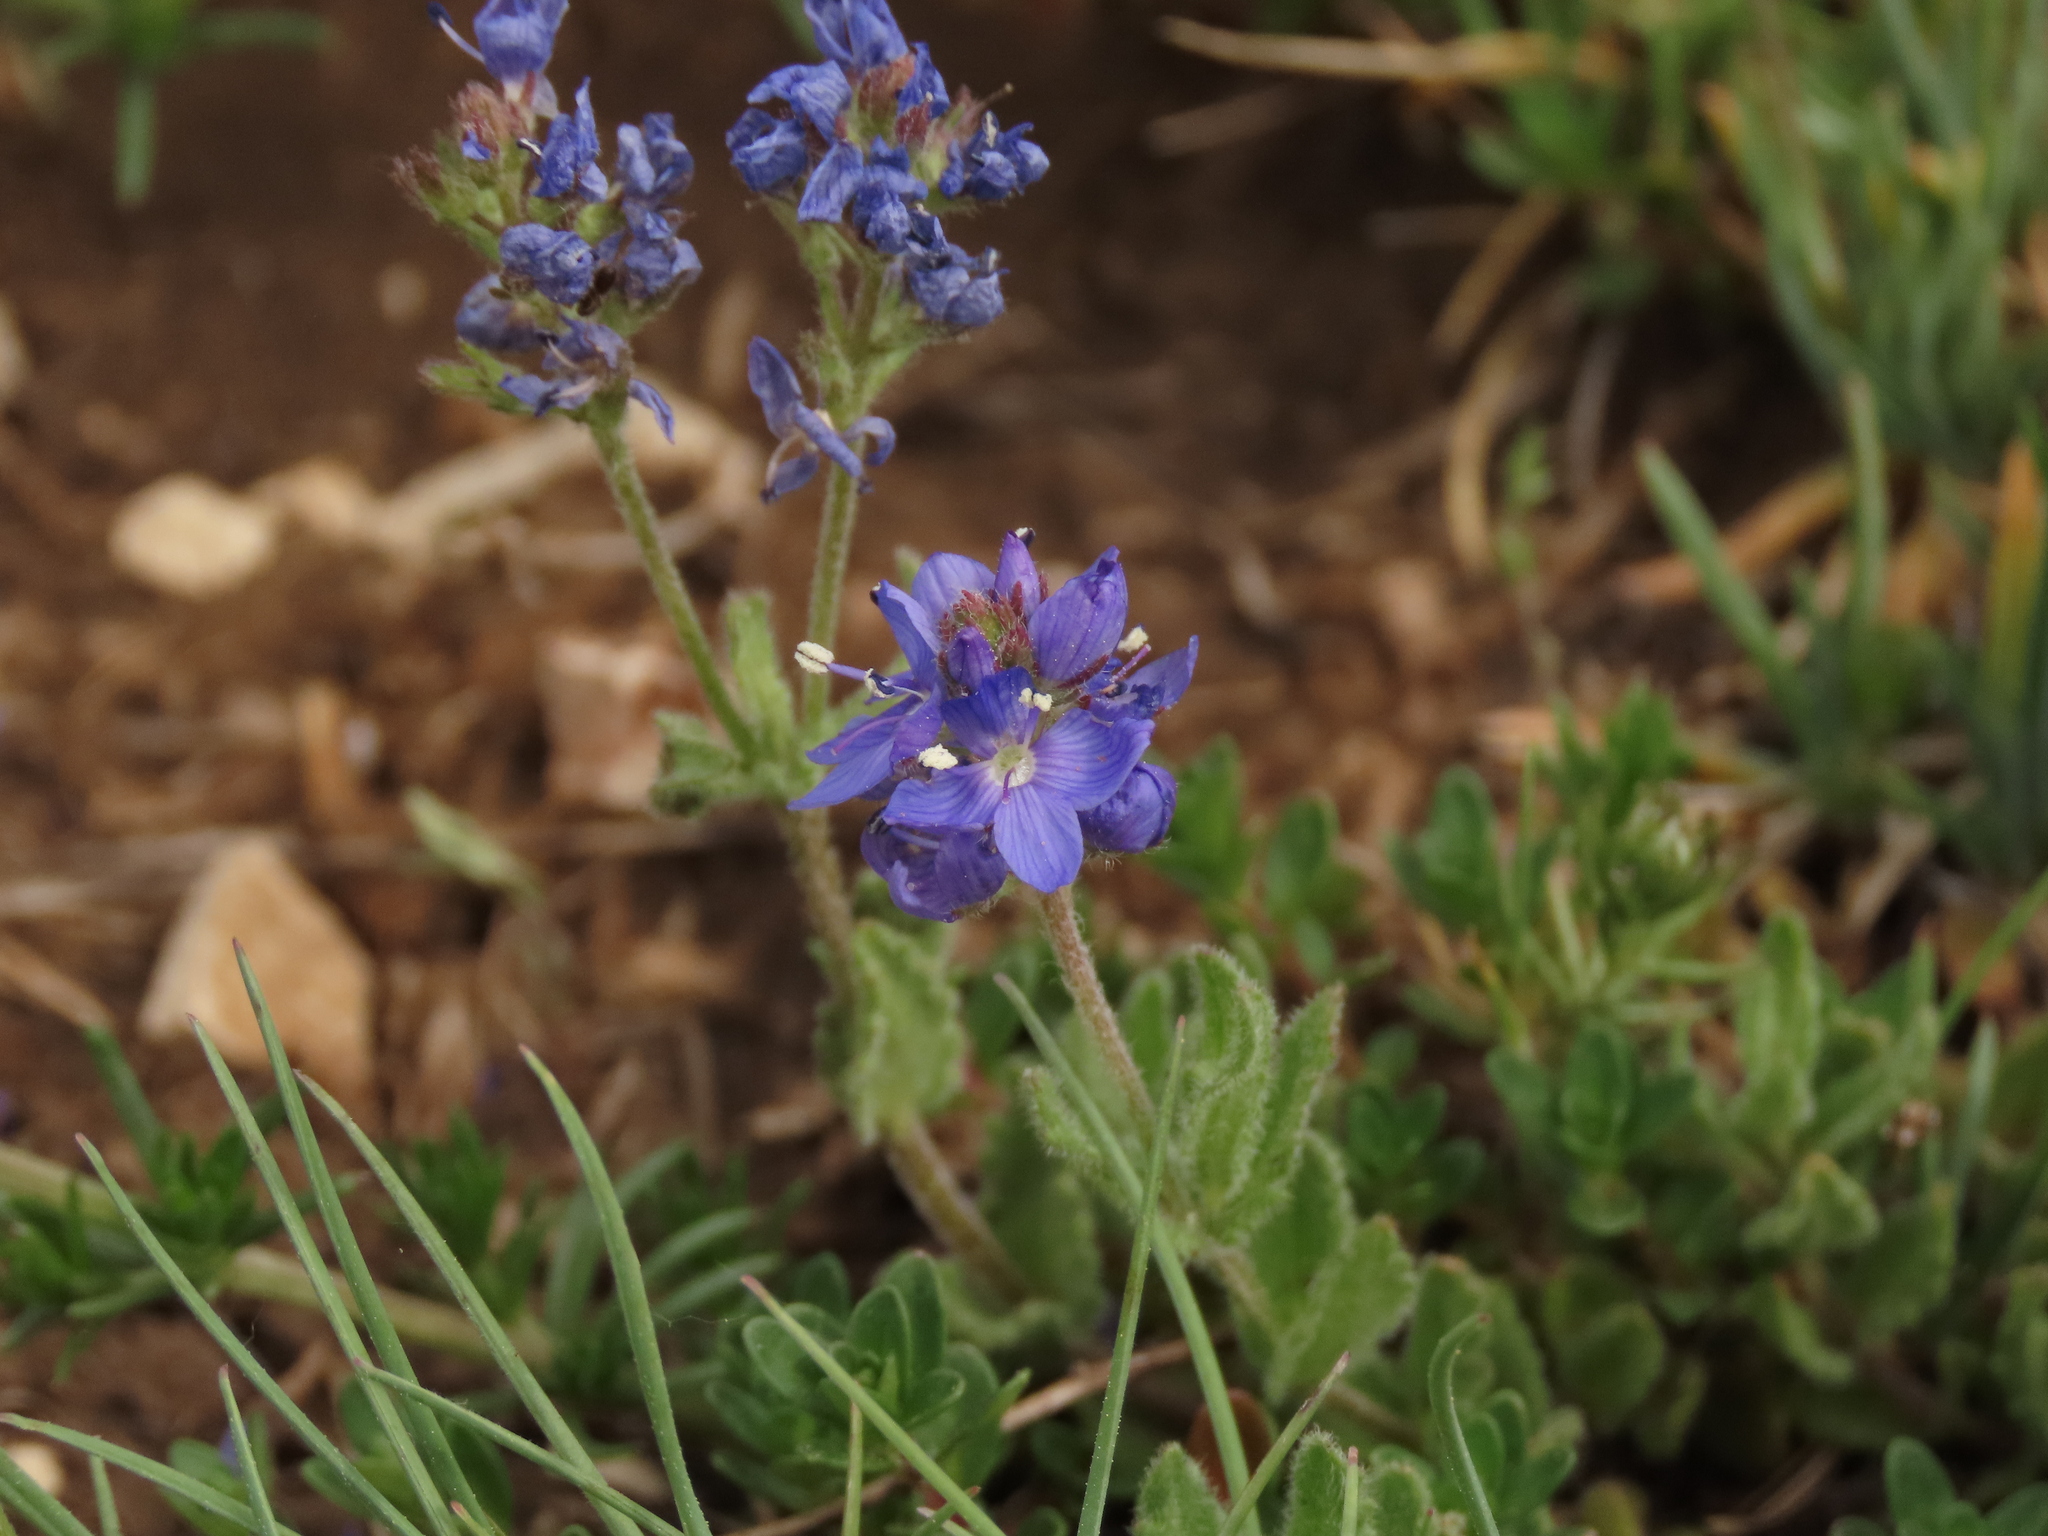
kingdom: Plantae
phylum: Tracheophyta
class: Magnoliopsida
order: Lamiales
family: Plantaginaceae
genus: Veronica
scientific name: Veronica orsiniana
